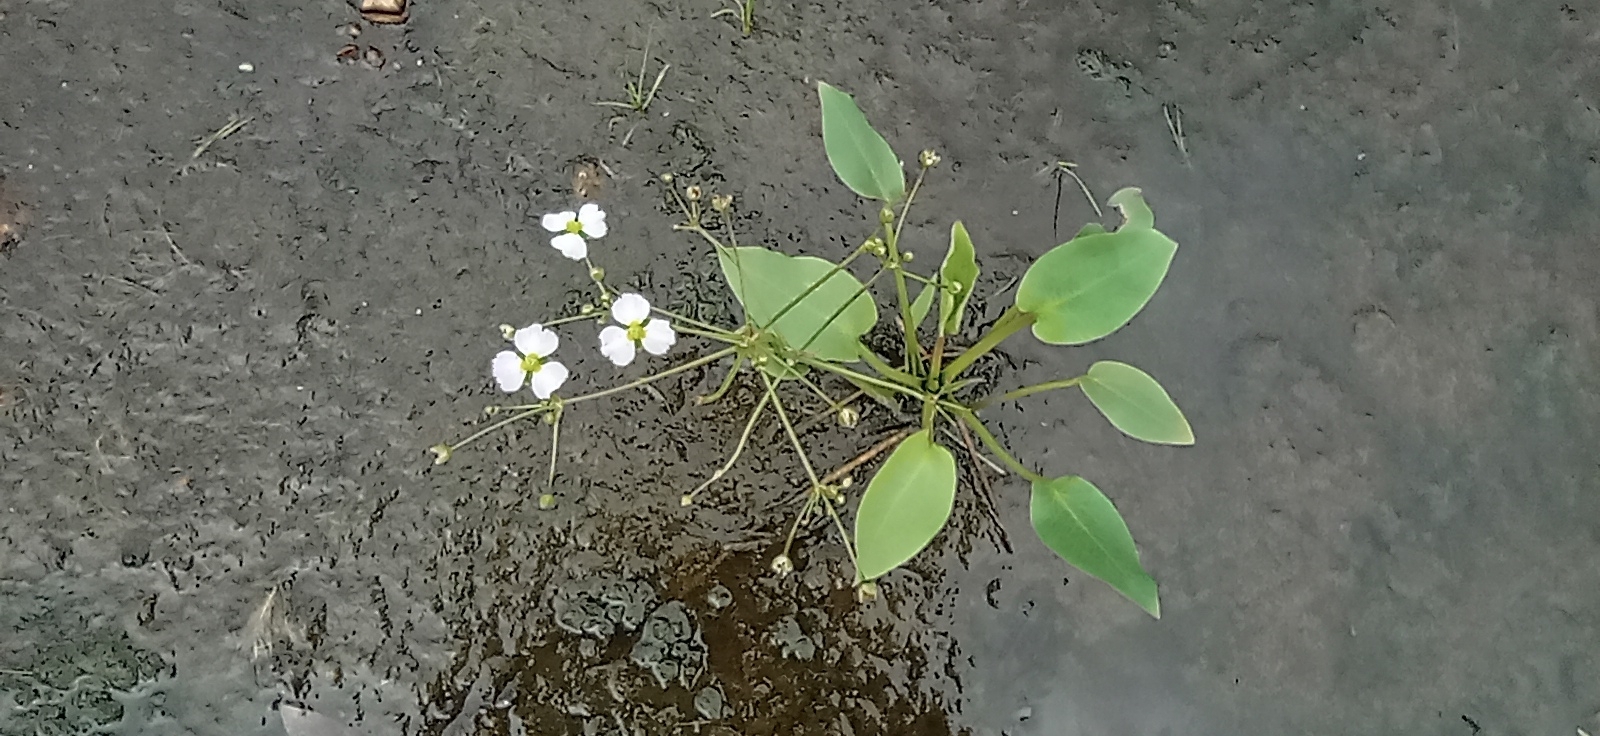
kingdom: Plantae
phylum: Tracheophyta
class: Liliopsida
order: Alismatales
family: Alismataceae
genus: Alisma
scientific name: Alisma plantago-aquatica
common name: Water-plantain
